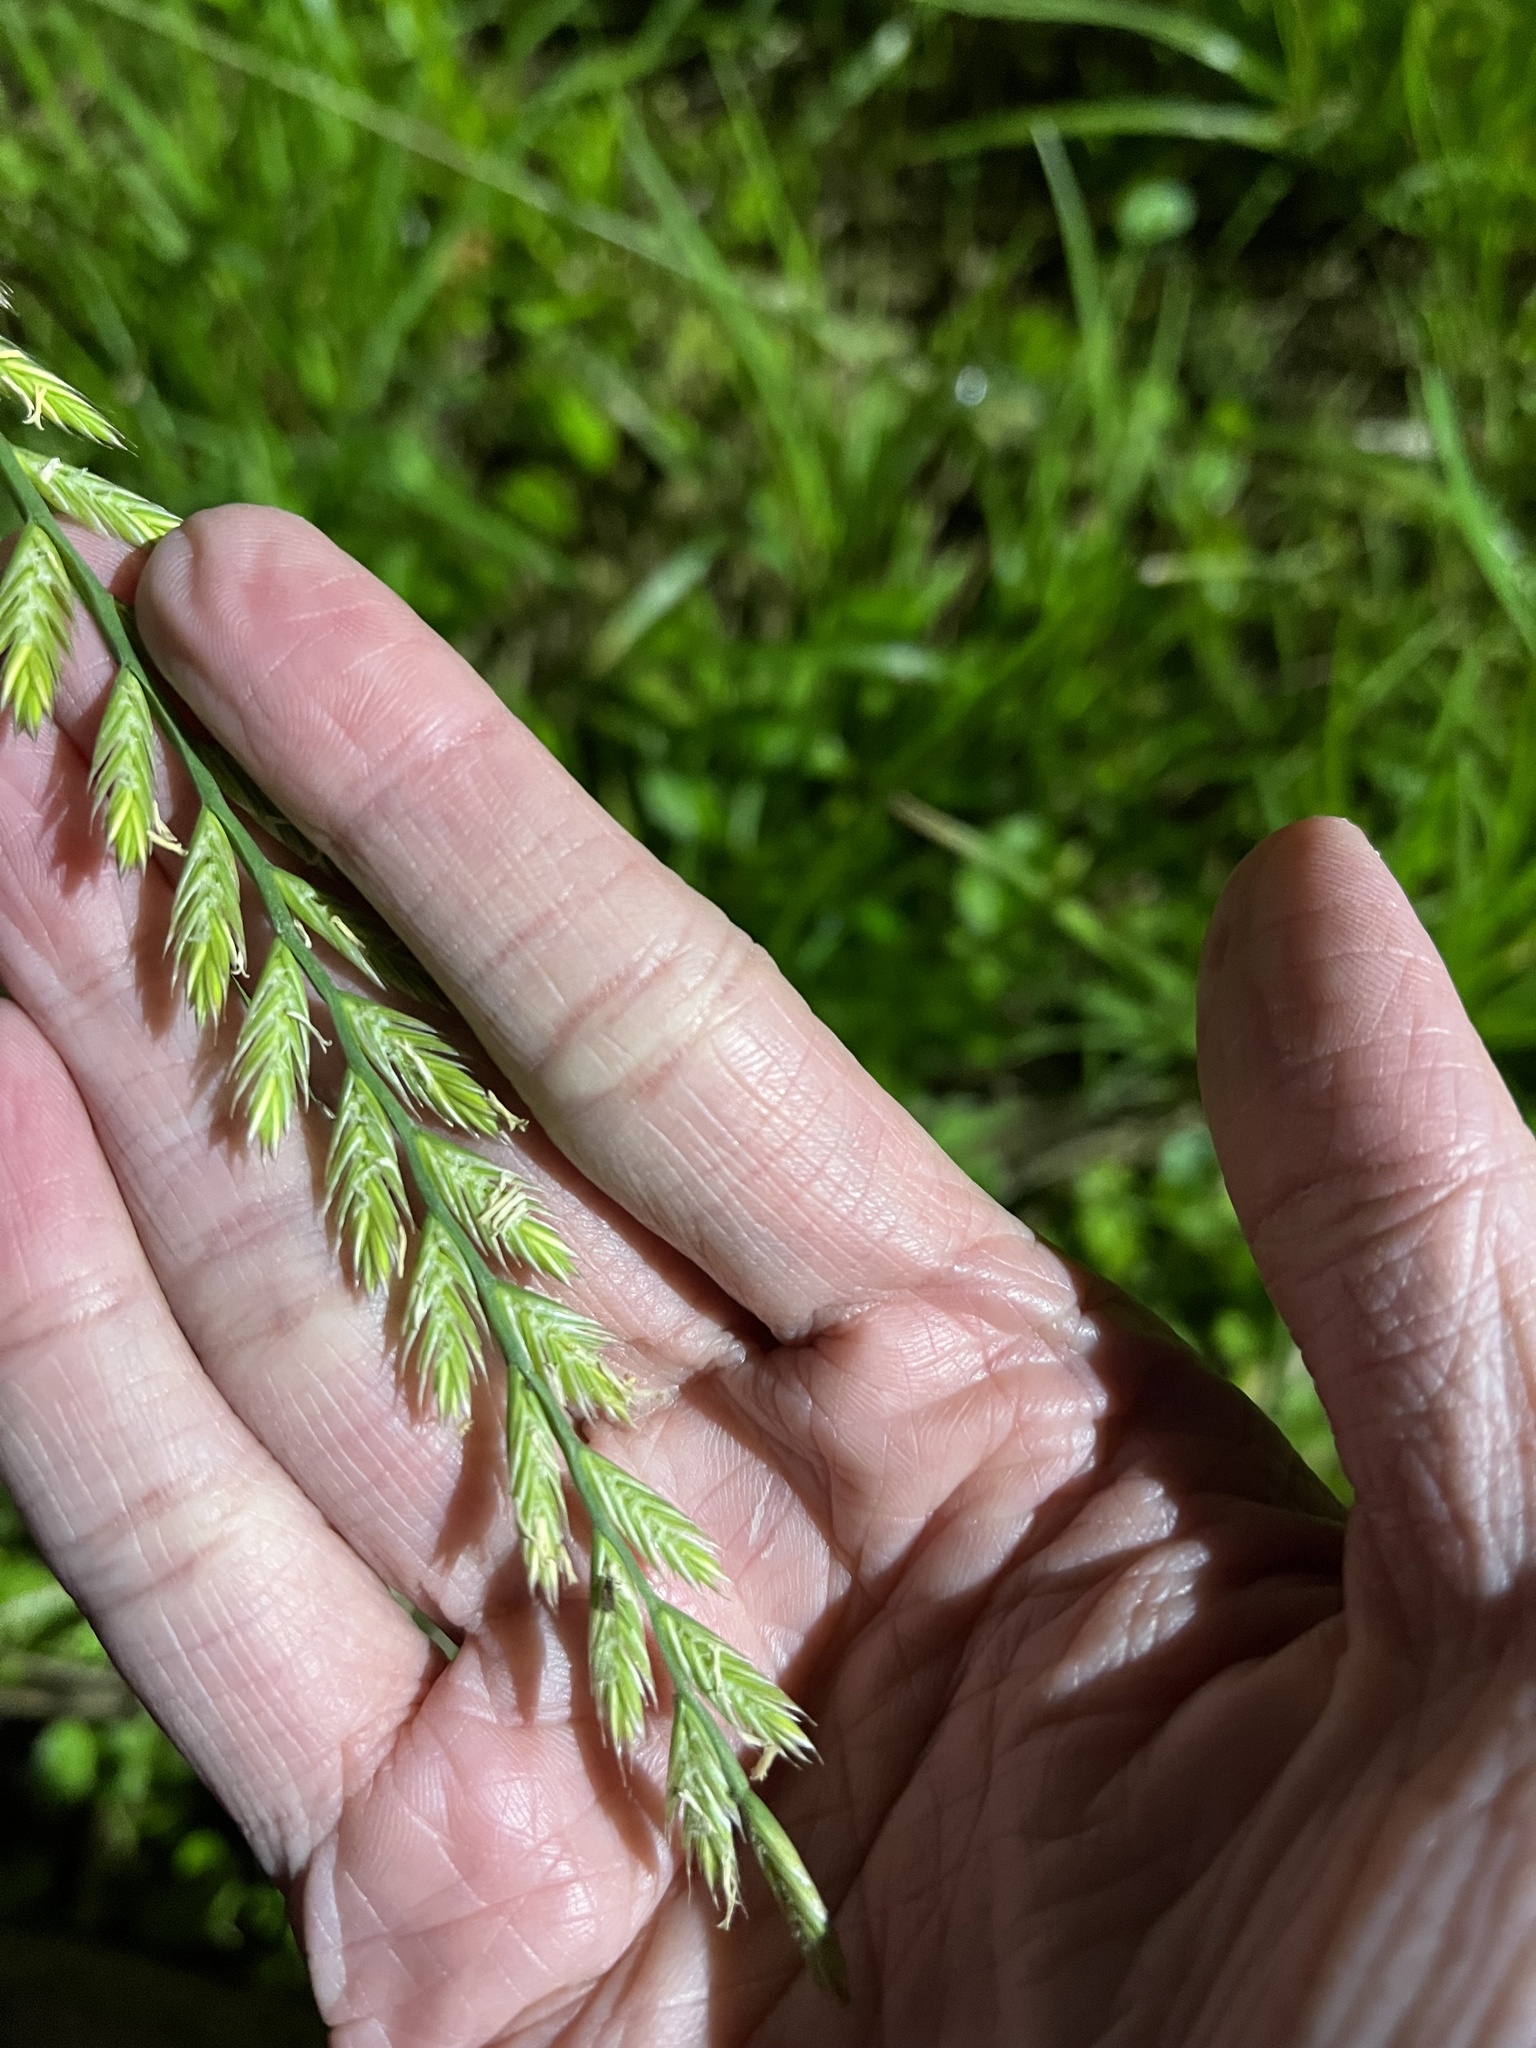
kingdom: Plantae
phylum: Tracheophyta
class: Liliopsida
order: Poales
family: Poaceae
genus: Lolium
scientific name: Lolium multiflorum
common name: Annual ryegrass
